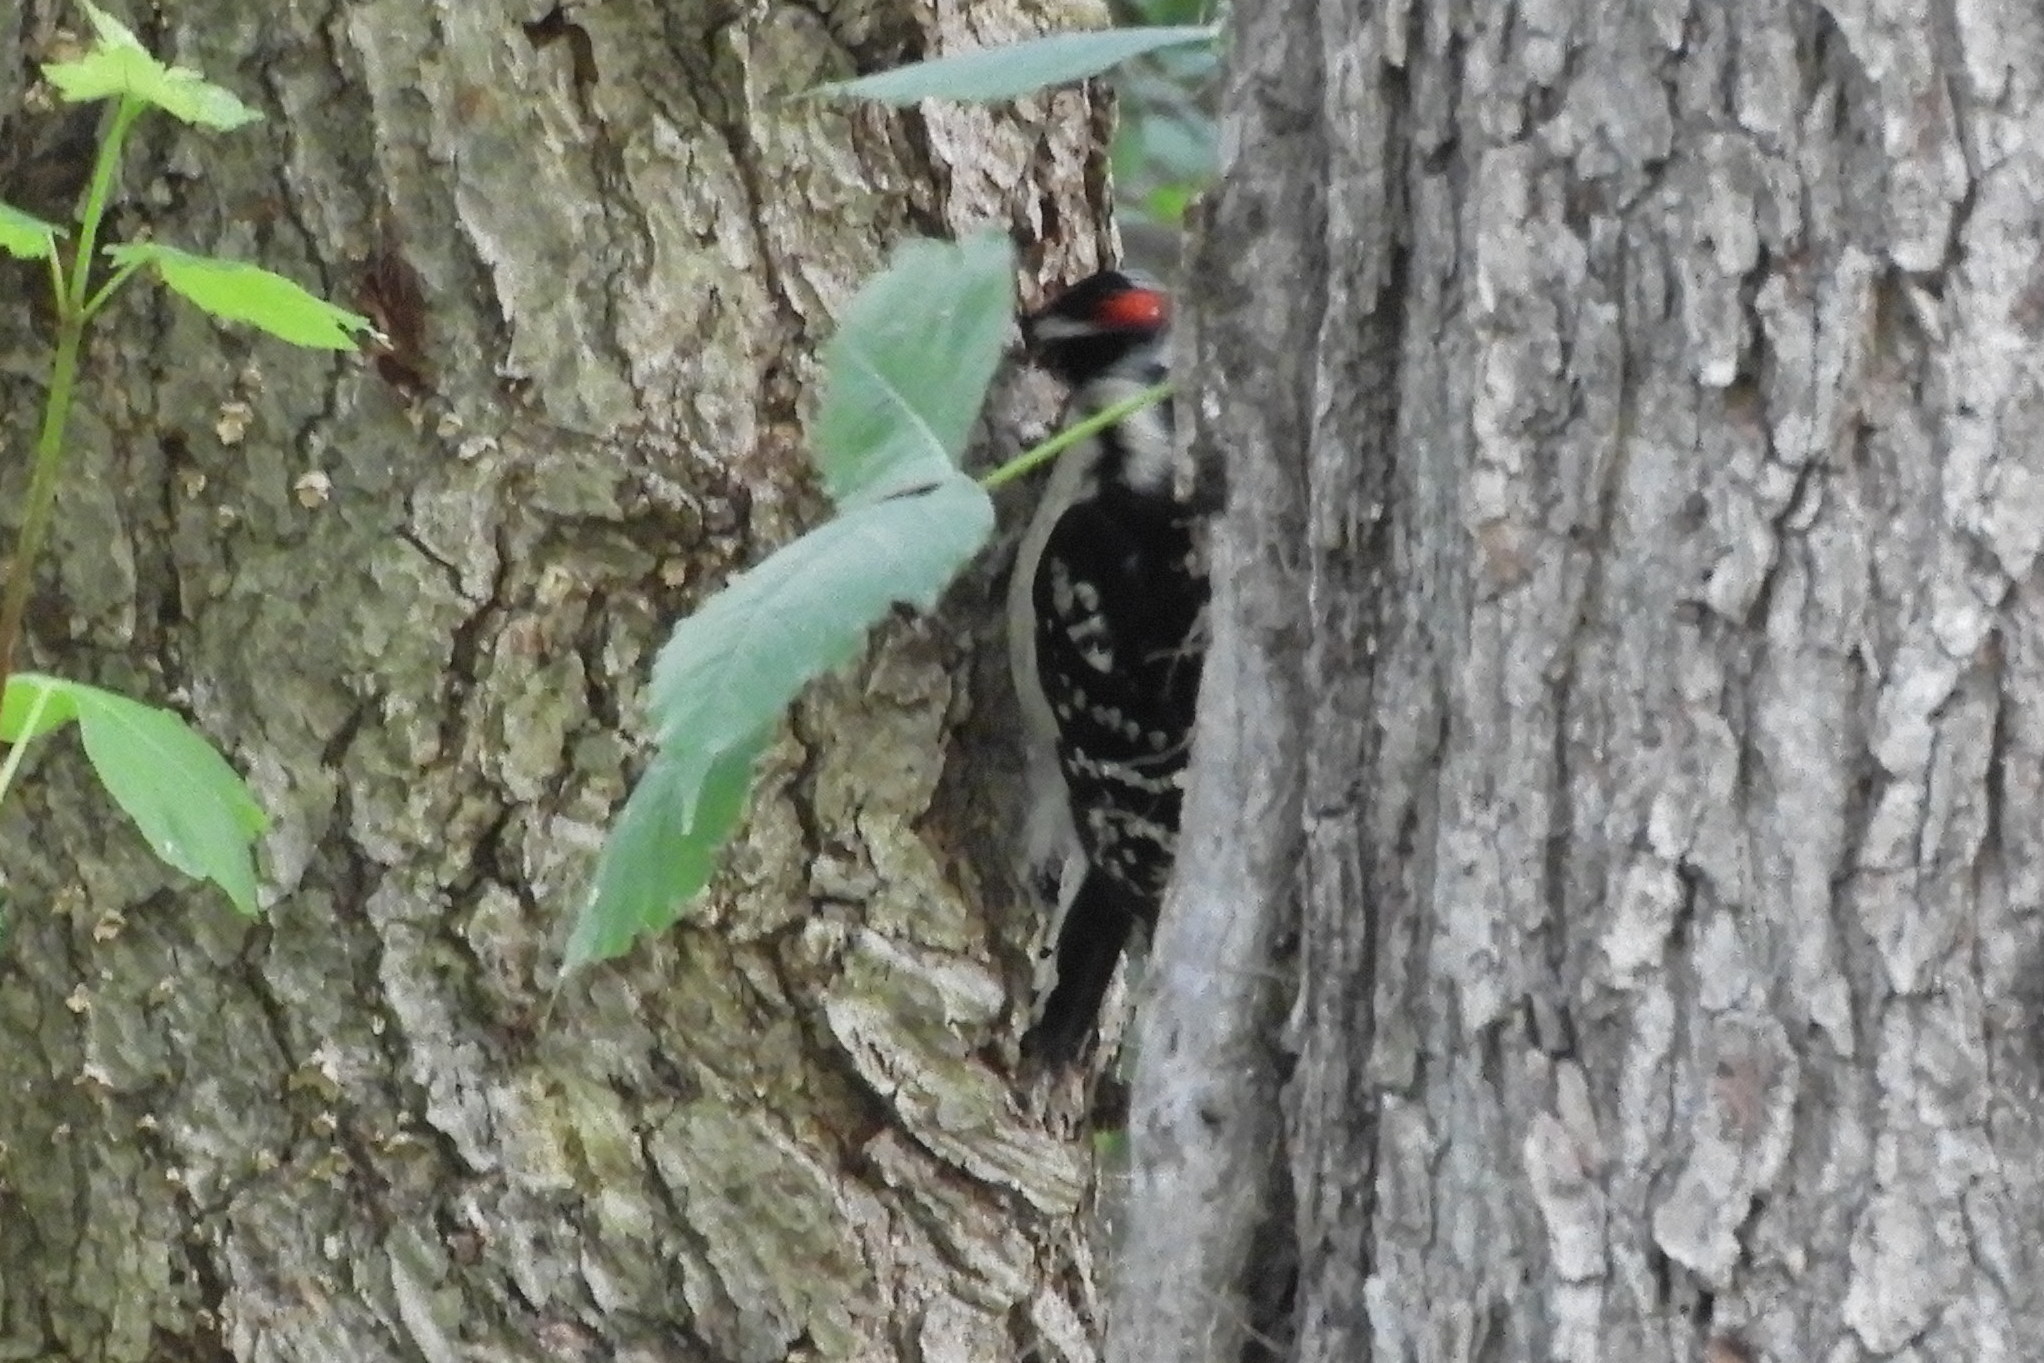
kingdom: Animalia
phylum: Chordata
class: Aves
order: Piciformes
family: Picidae
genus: Dryobates
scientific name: Dryobates pubescens
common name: Downy woodpecker
